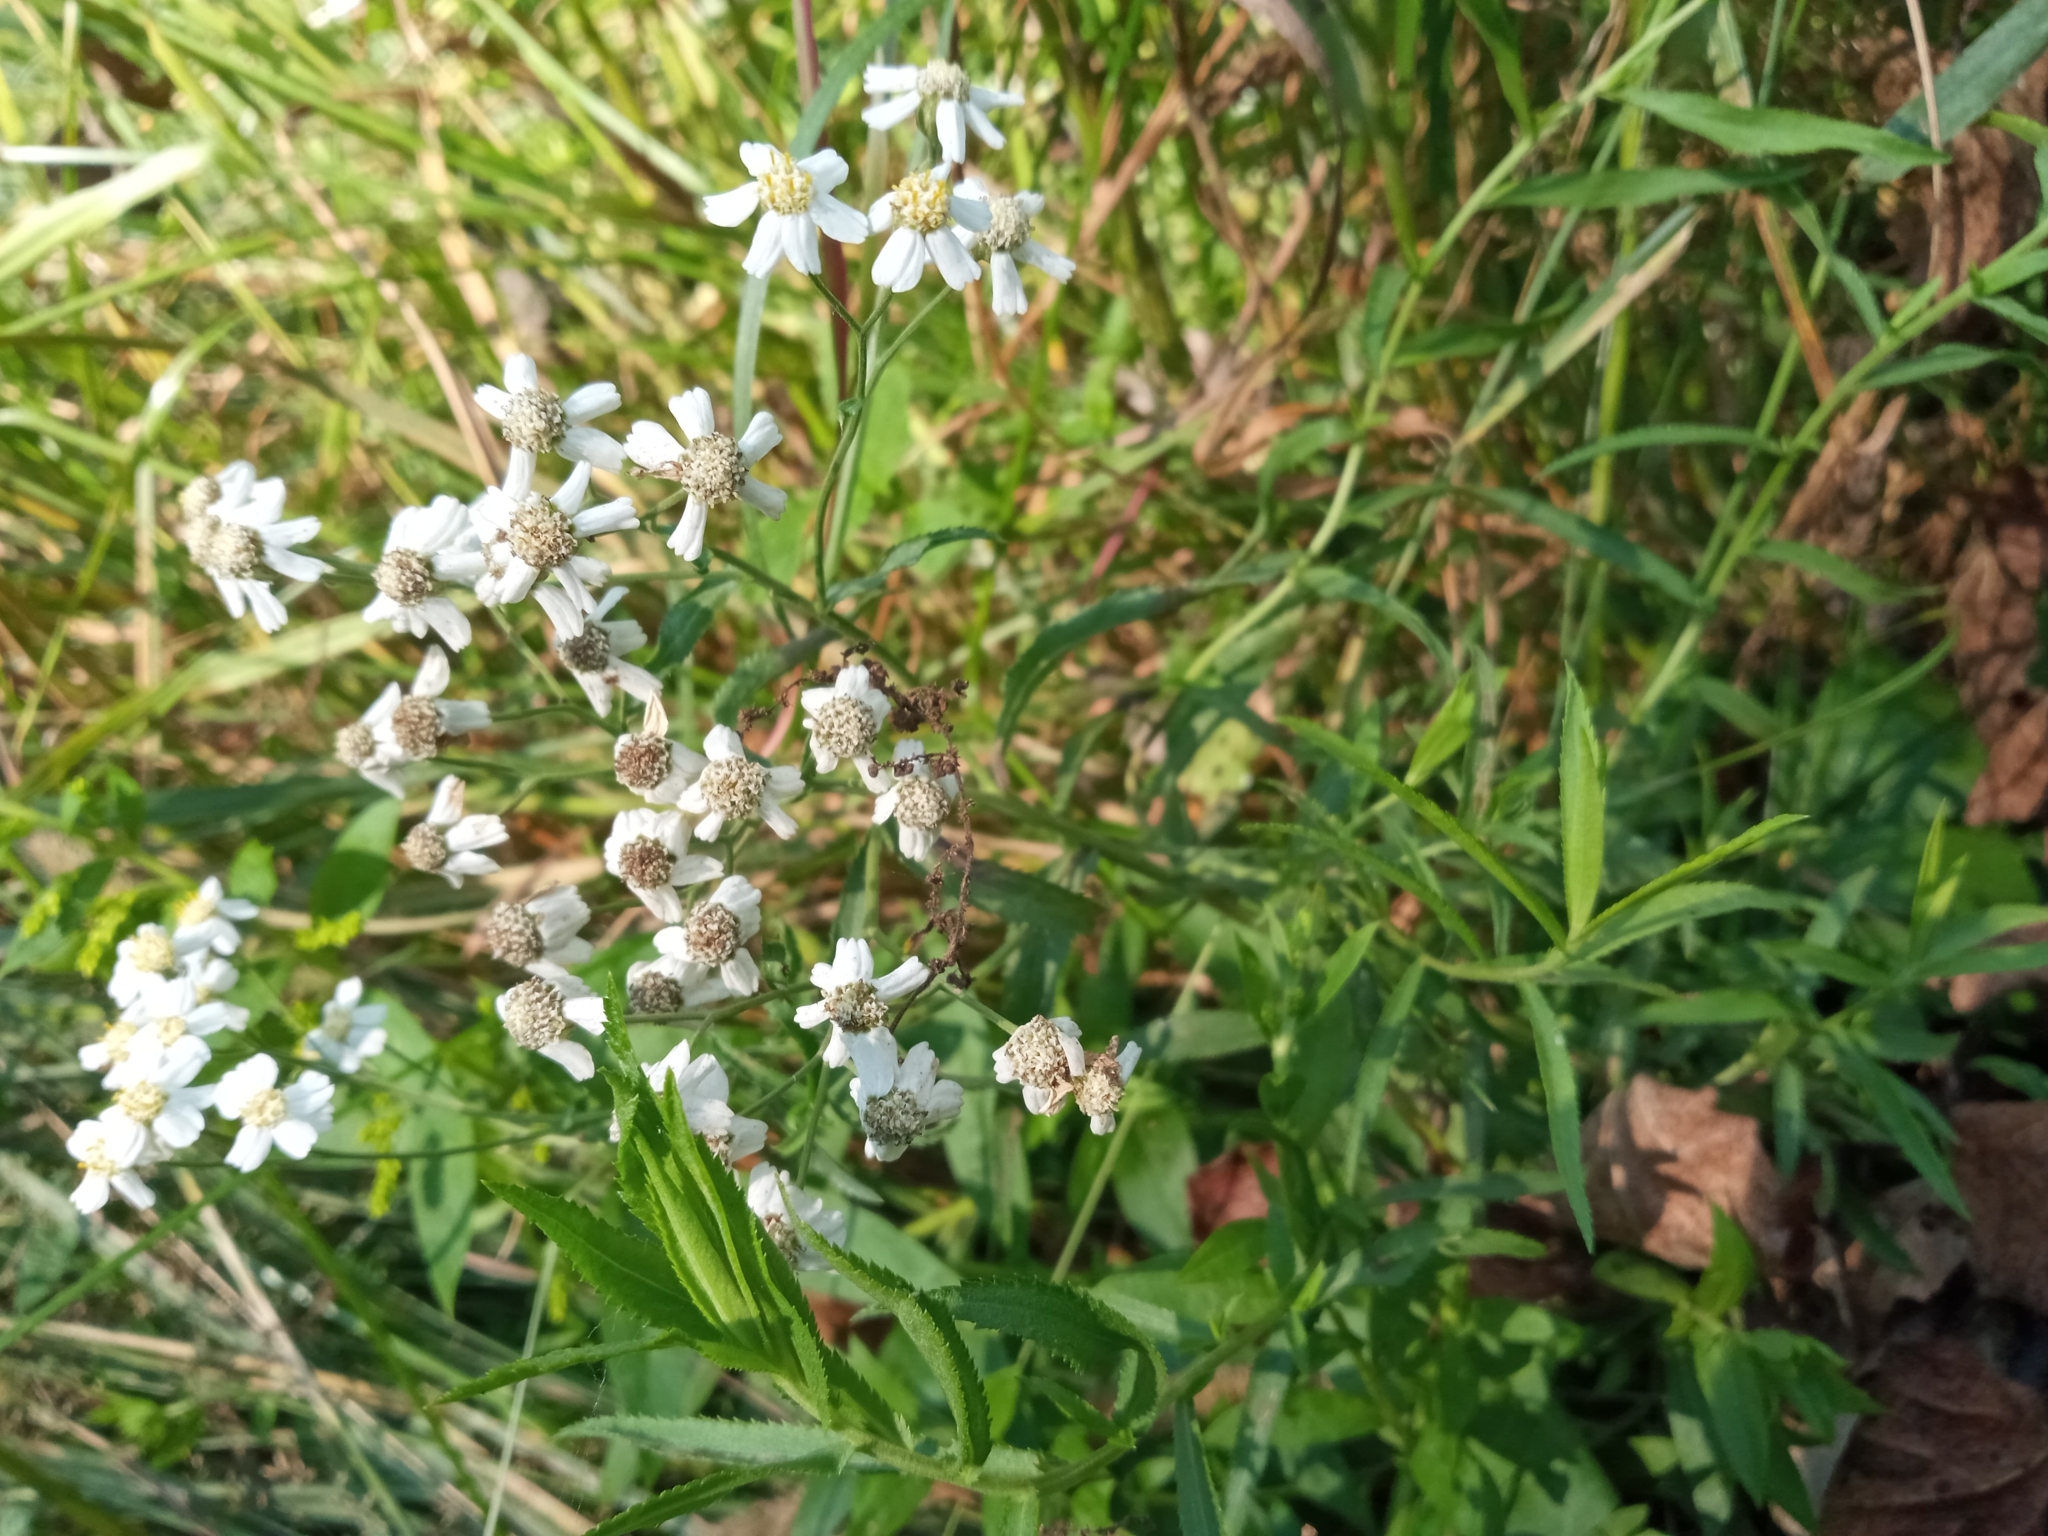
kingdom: Plantae
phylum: Tracheophyta
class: Magnoliopsida
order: Asterales
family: Asteraceae
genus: Achillea
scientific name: Achillea ptarmica
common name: Sneezeweed
